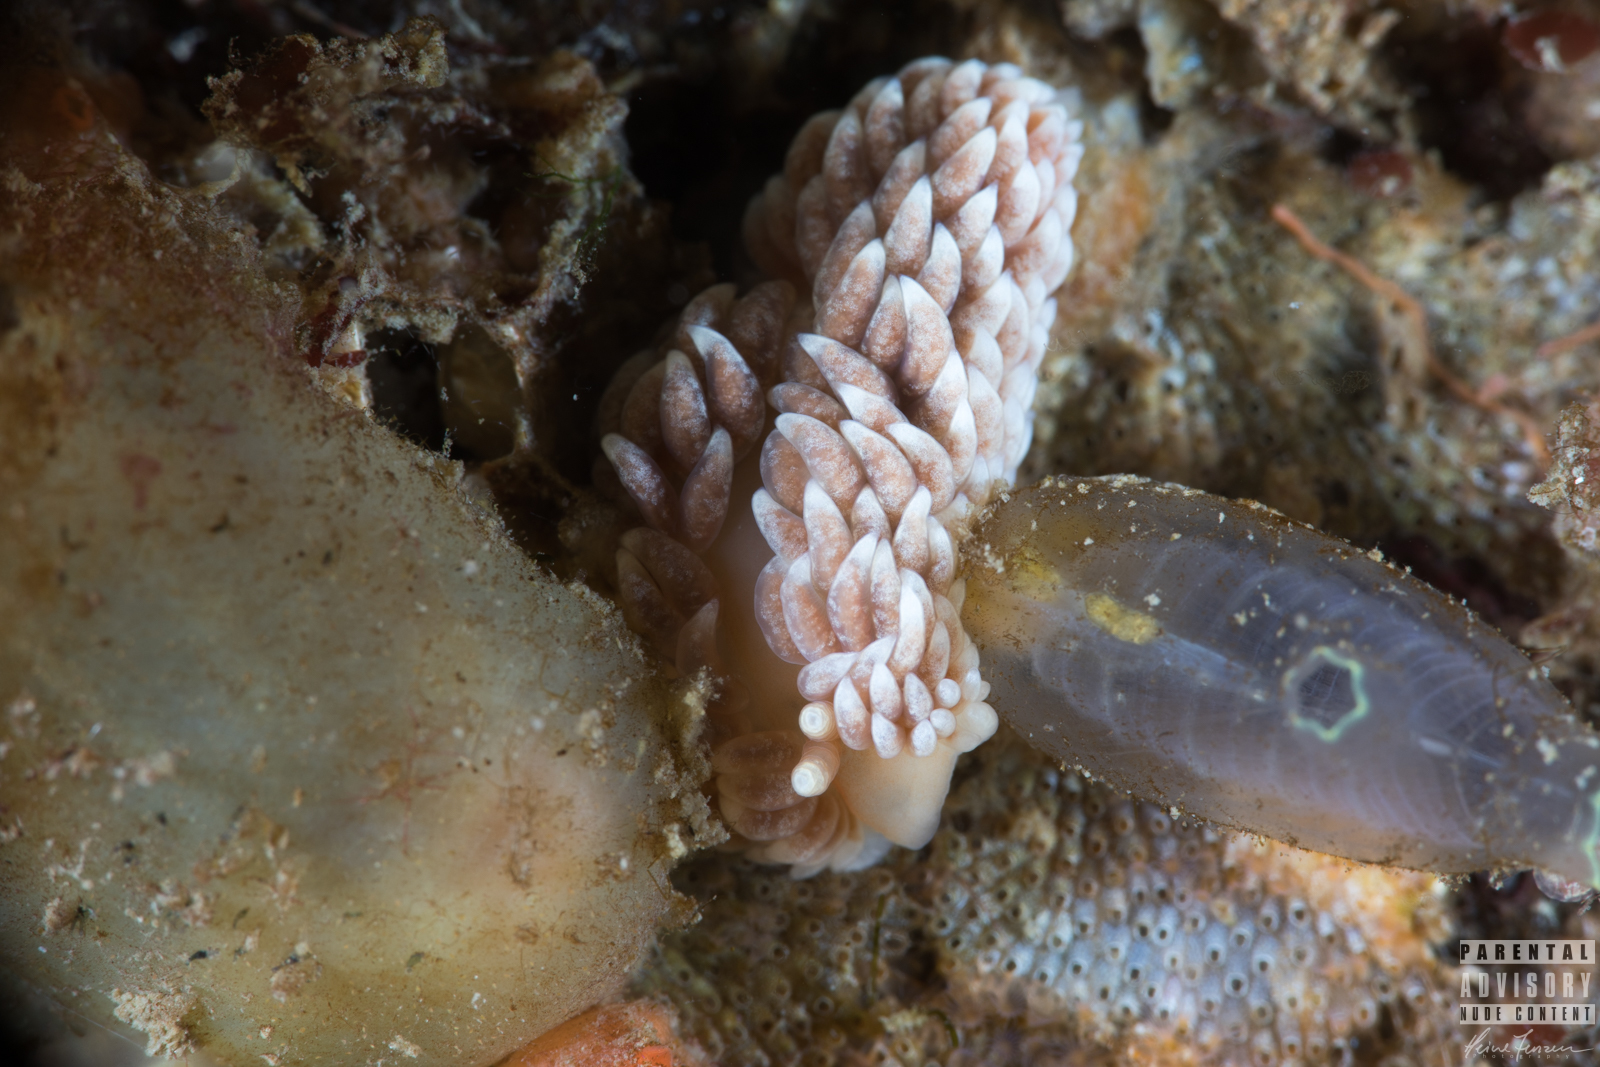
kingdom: Animalia
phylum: Mollusca
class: Gastropoda
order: Nudibranchia
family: Aeolidiidae
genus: Aeolidiella
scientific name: Aeolidiella glauca
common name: Orange-brown aeolid
